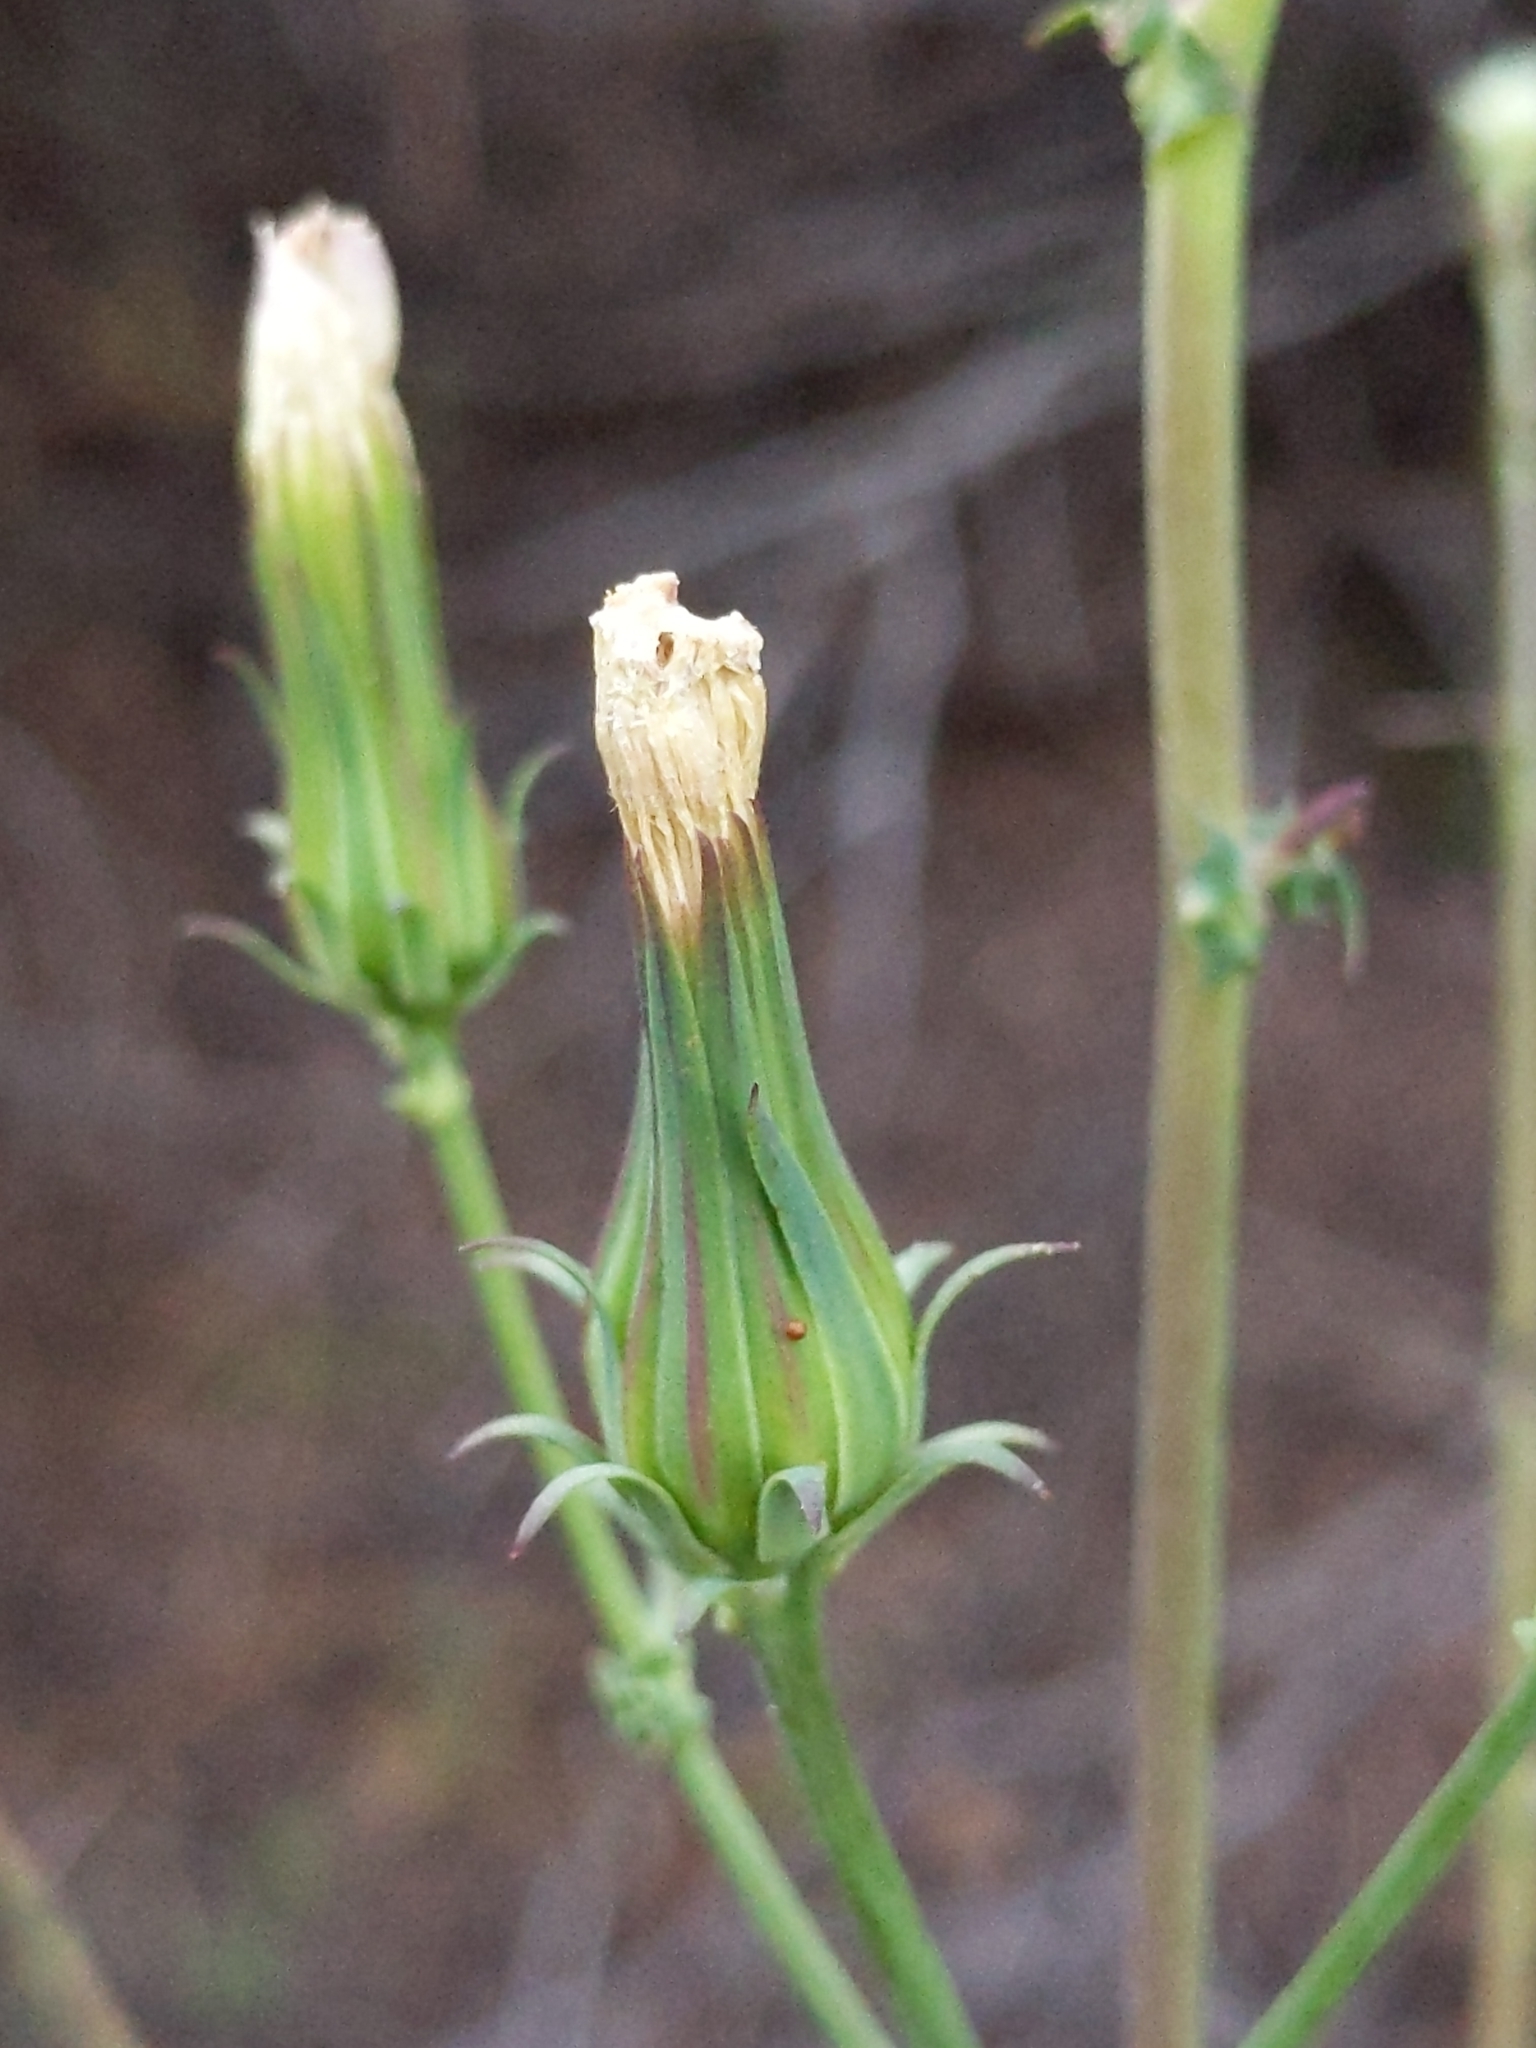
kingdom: Plantae
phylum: Tracheophyta
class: Magnoliopsida
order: Asterales
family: Asteraceae
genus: Rafinesquia
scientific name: Rafinesquia californica
